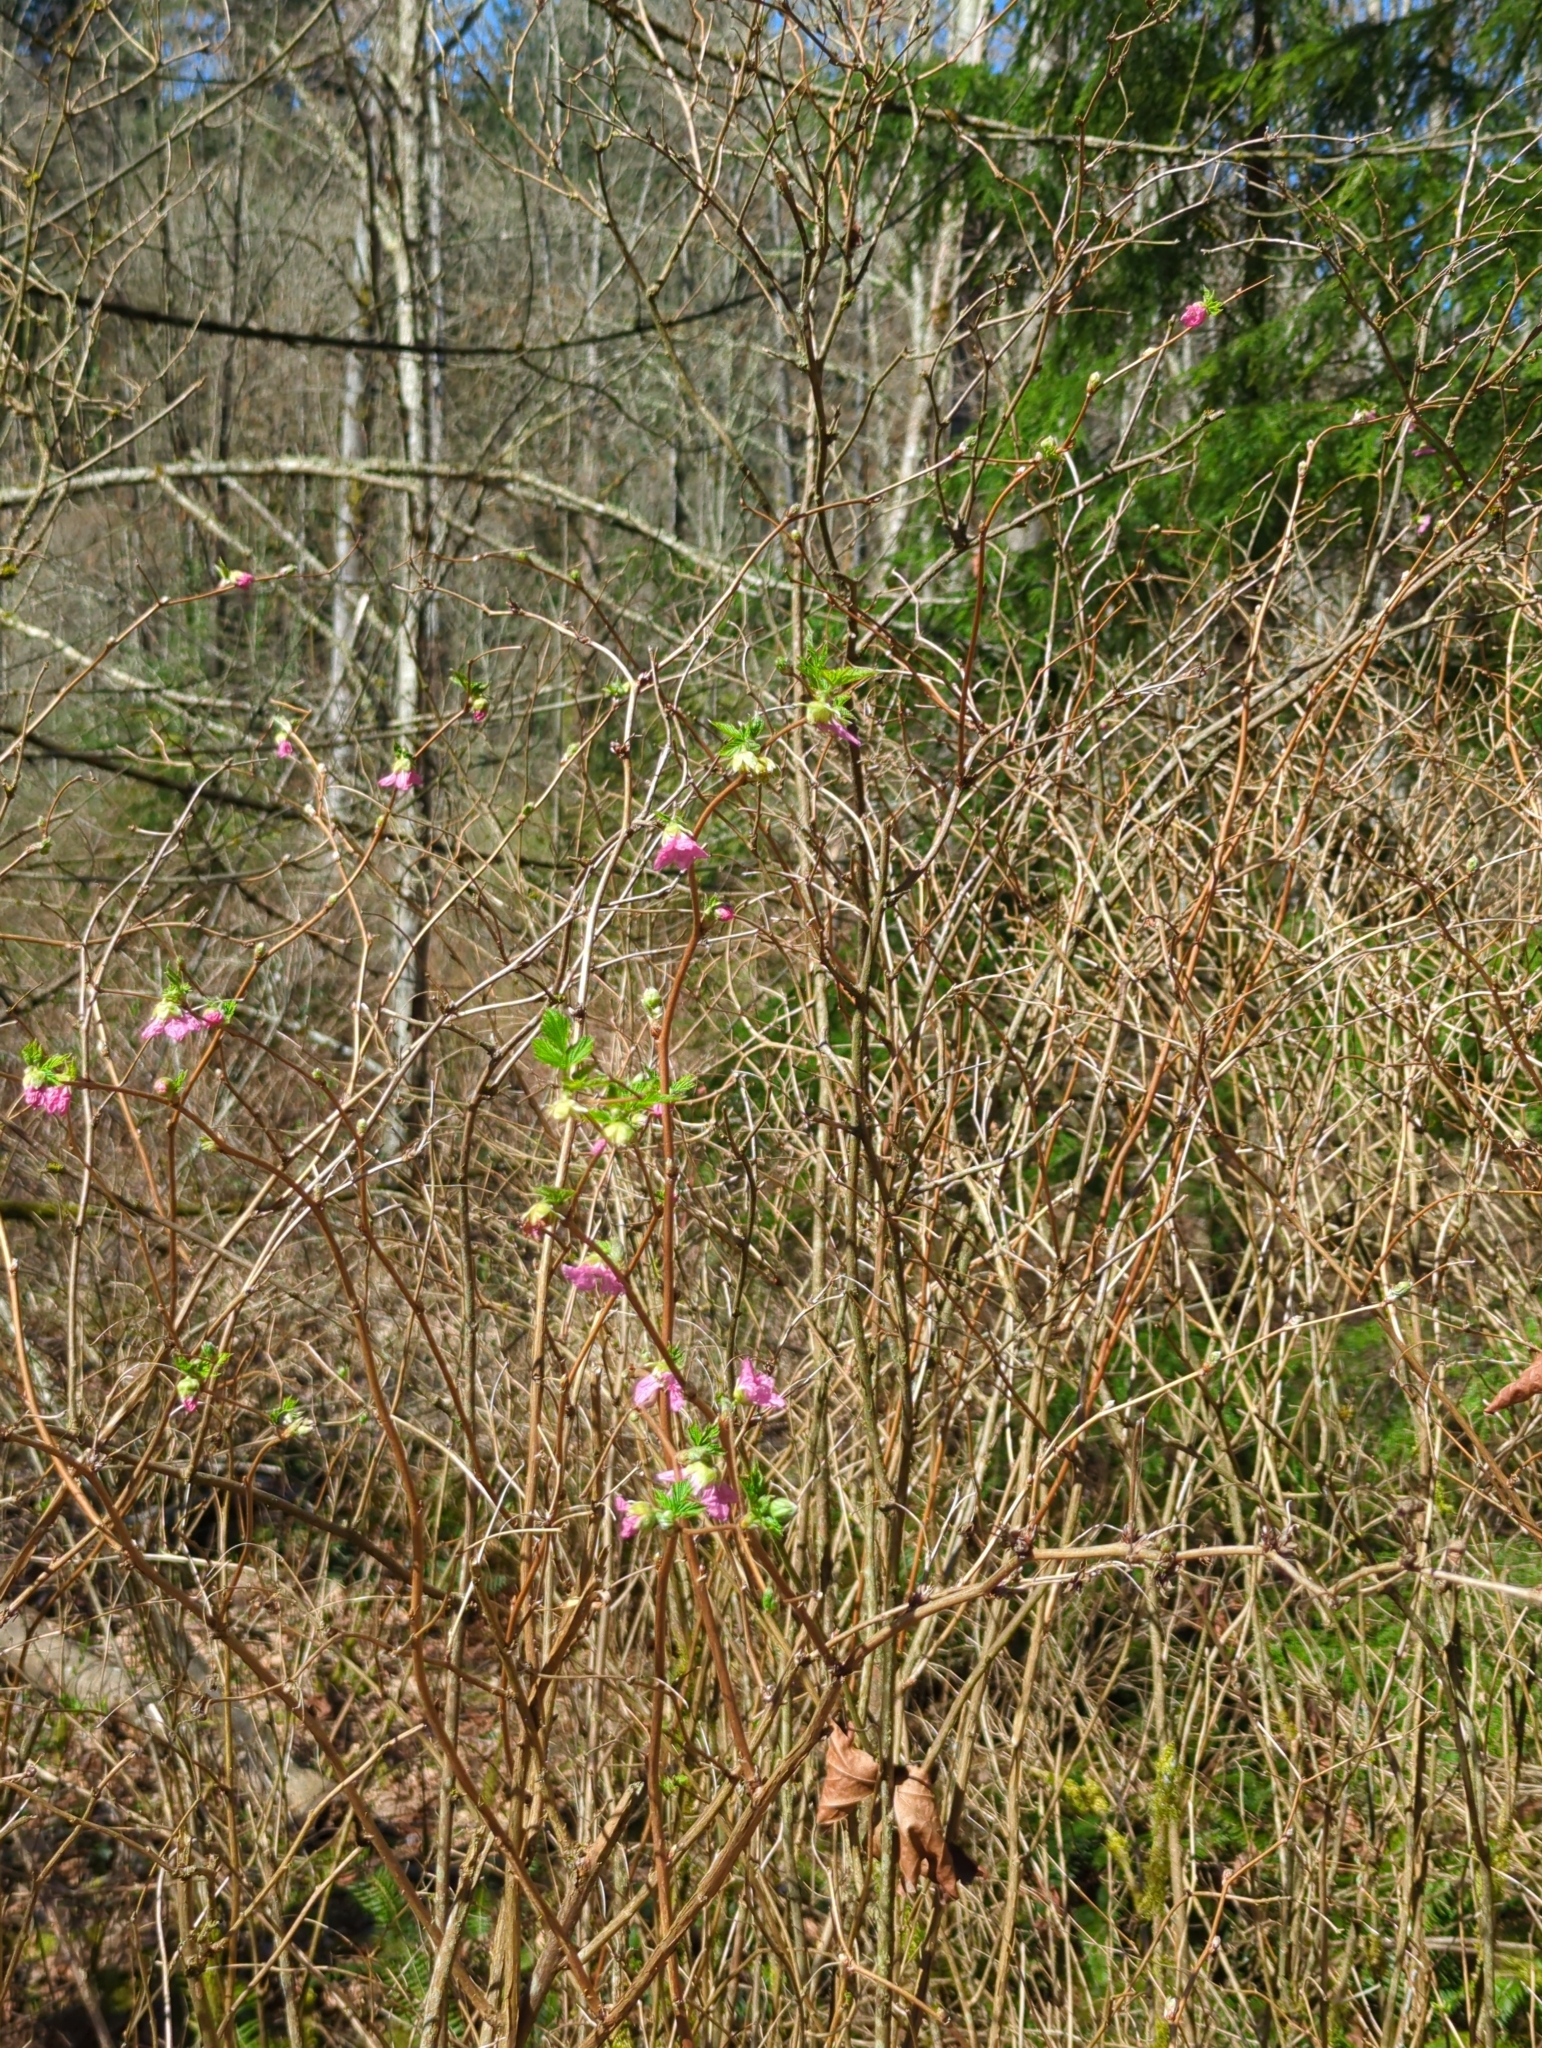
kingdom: Plantae
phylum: Tracheophyta
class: Magnoliopsida
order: Rosales
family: Rosaceae
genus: Rubus
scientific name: Rubus spectabilis
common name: Salmonberry
